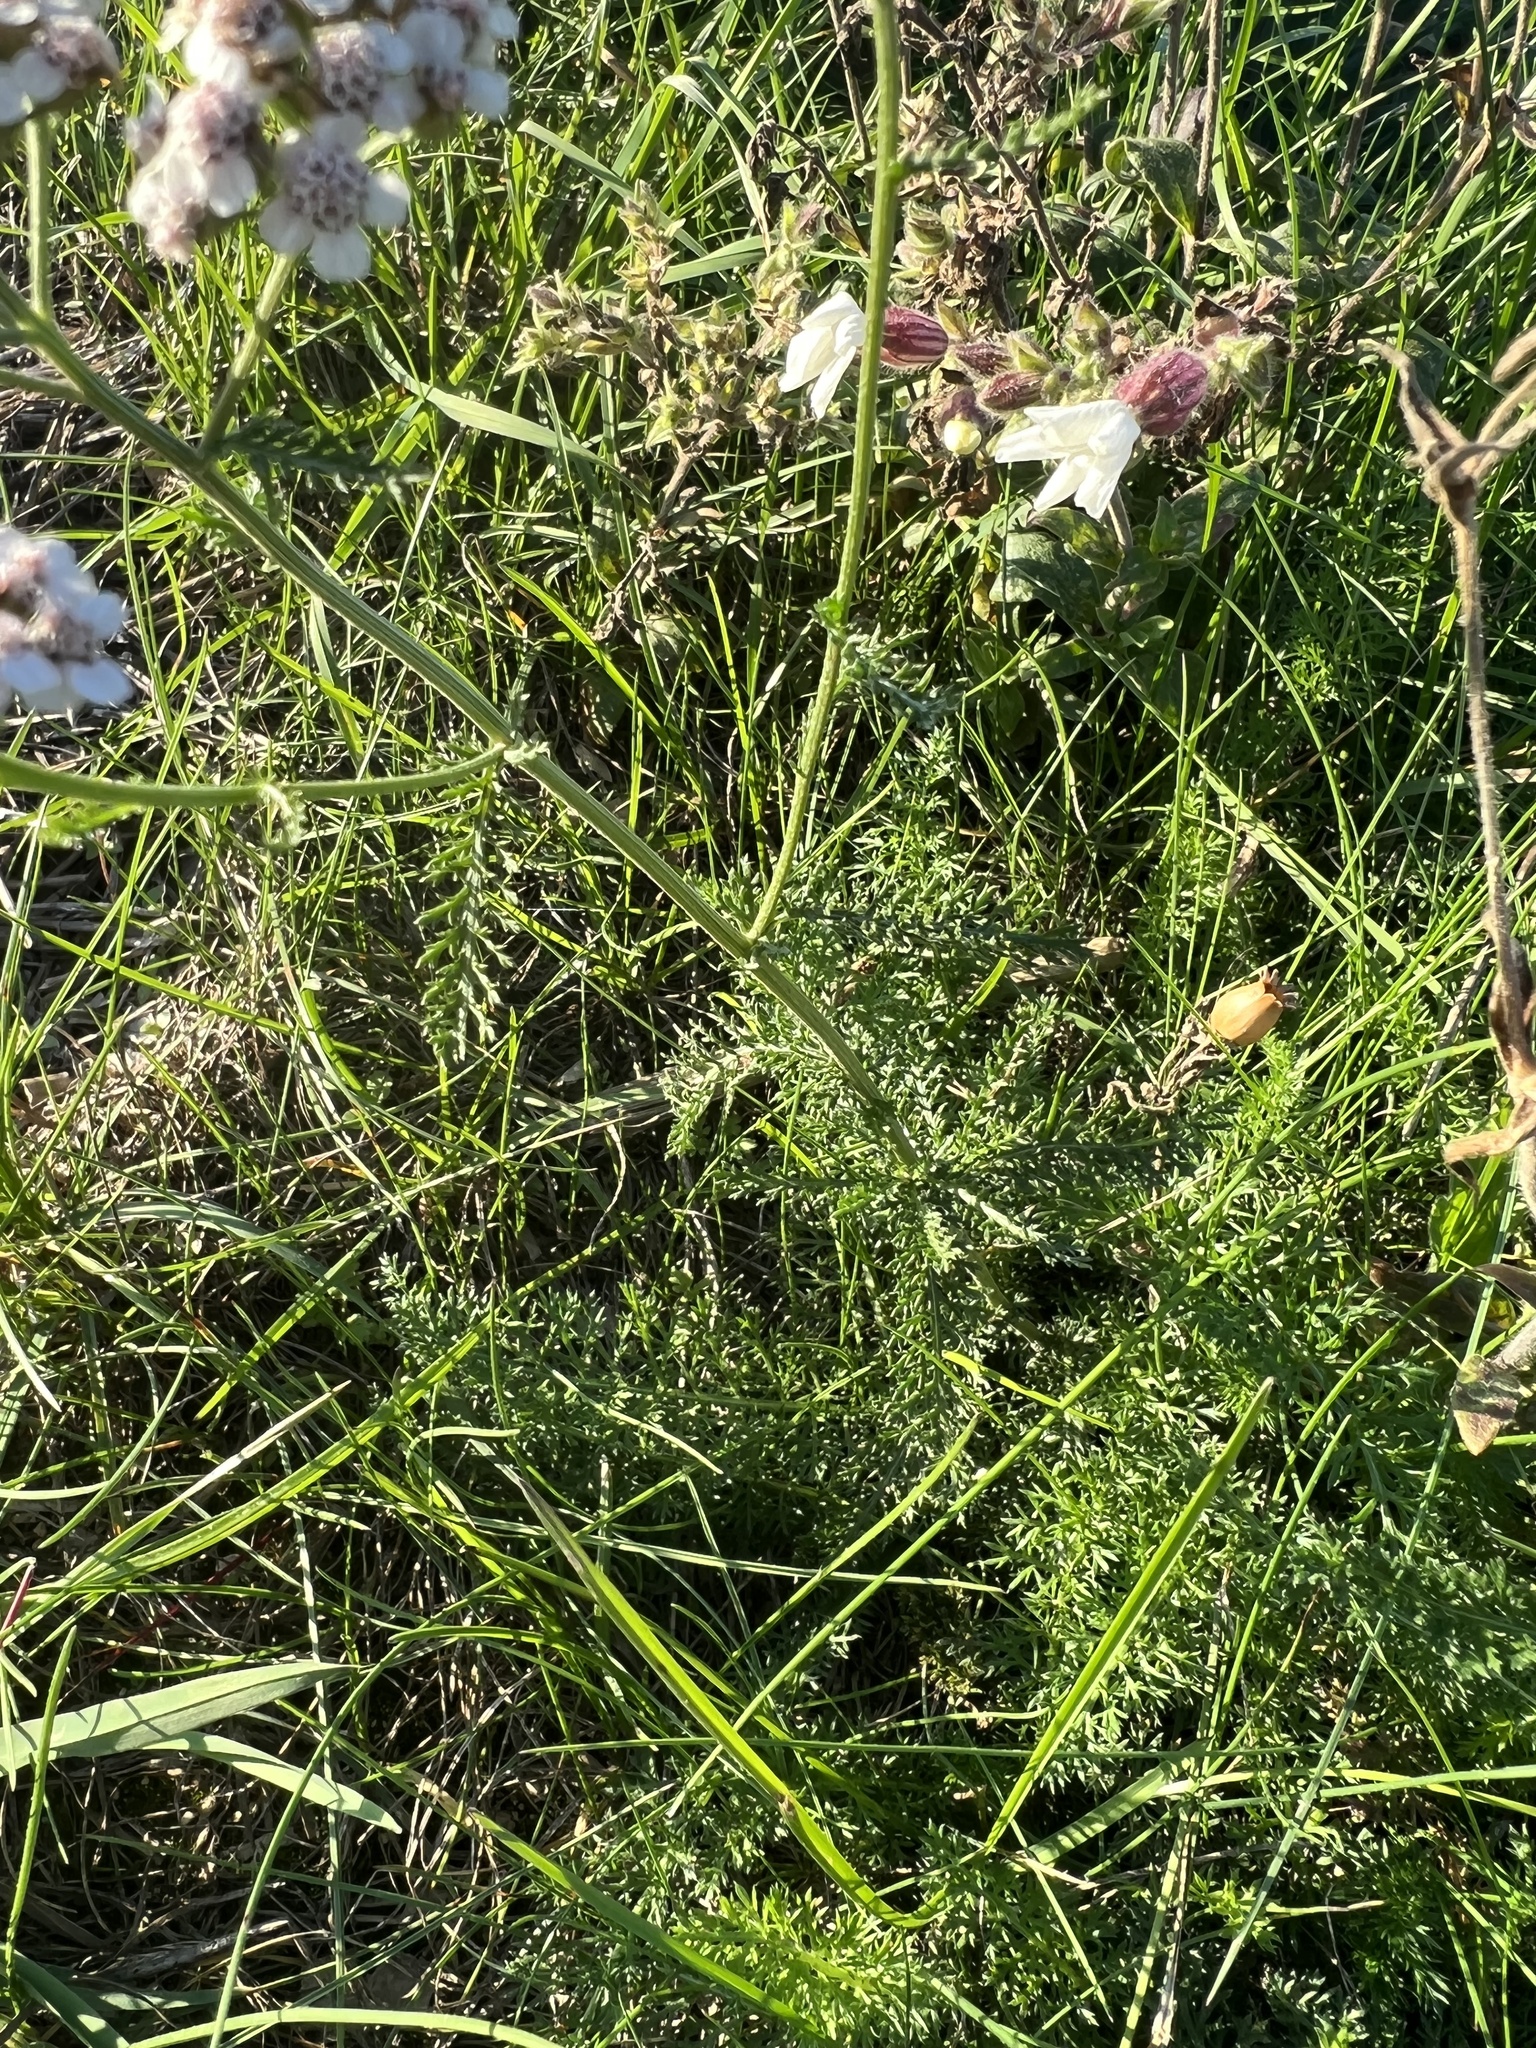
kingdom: Plantae
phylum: Tracheophyta
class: Magnoliopsida
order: Asterales
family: Asteraceae
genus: Achillea
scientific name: Achillea millefolium
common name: Yarrow
